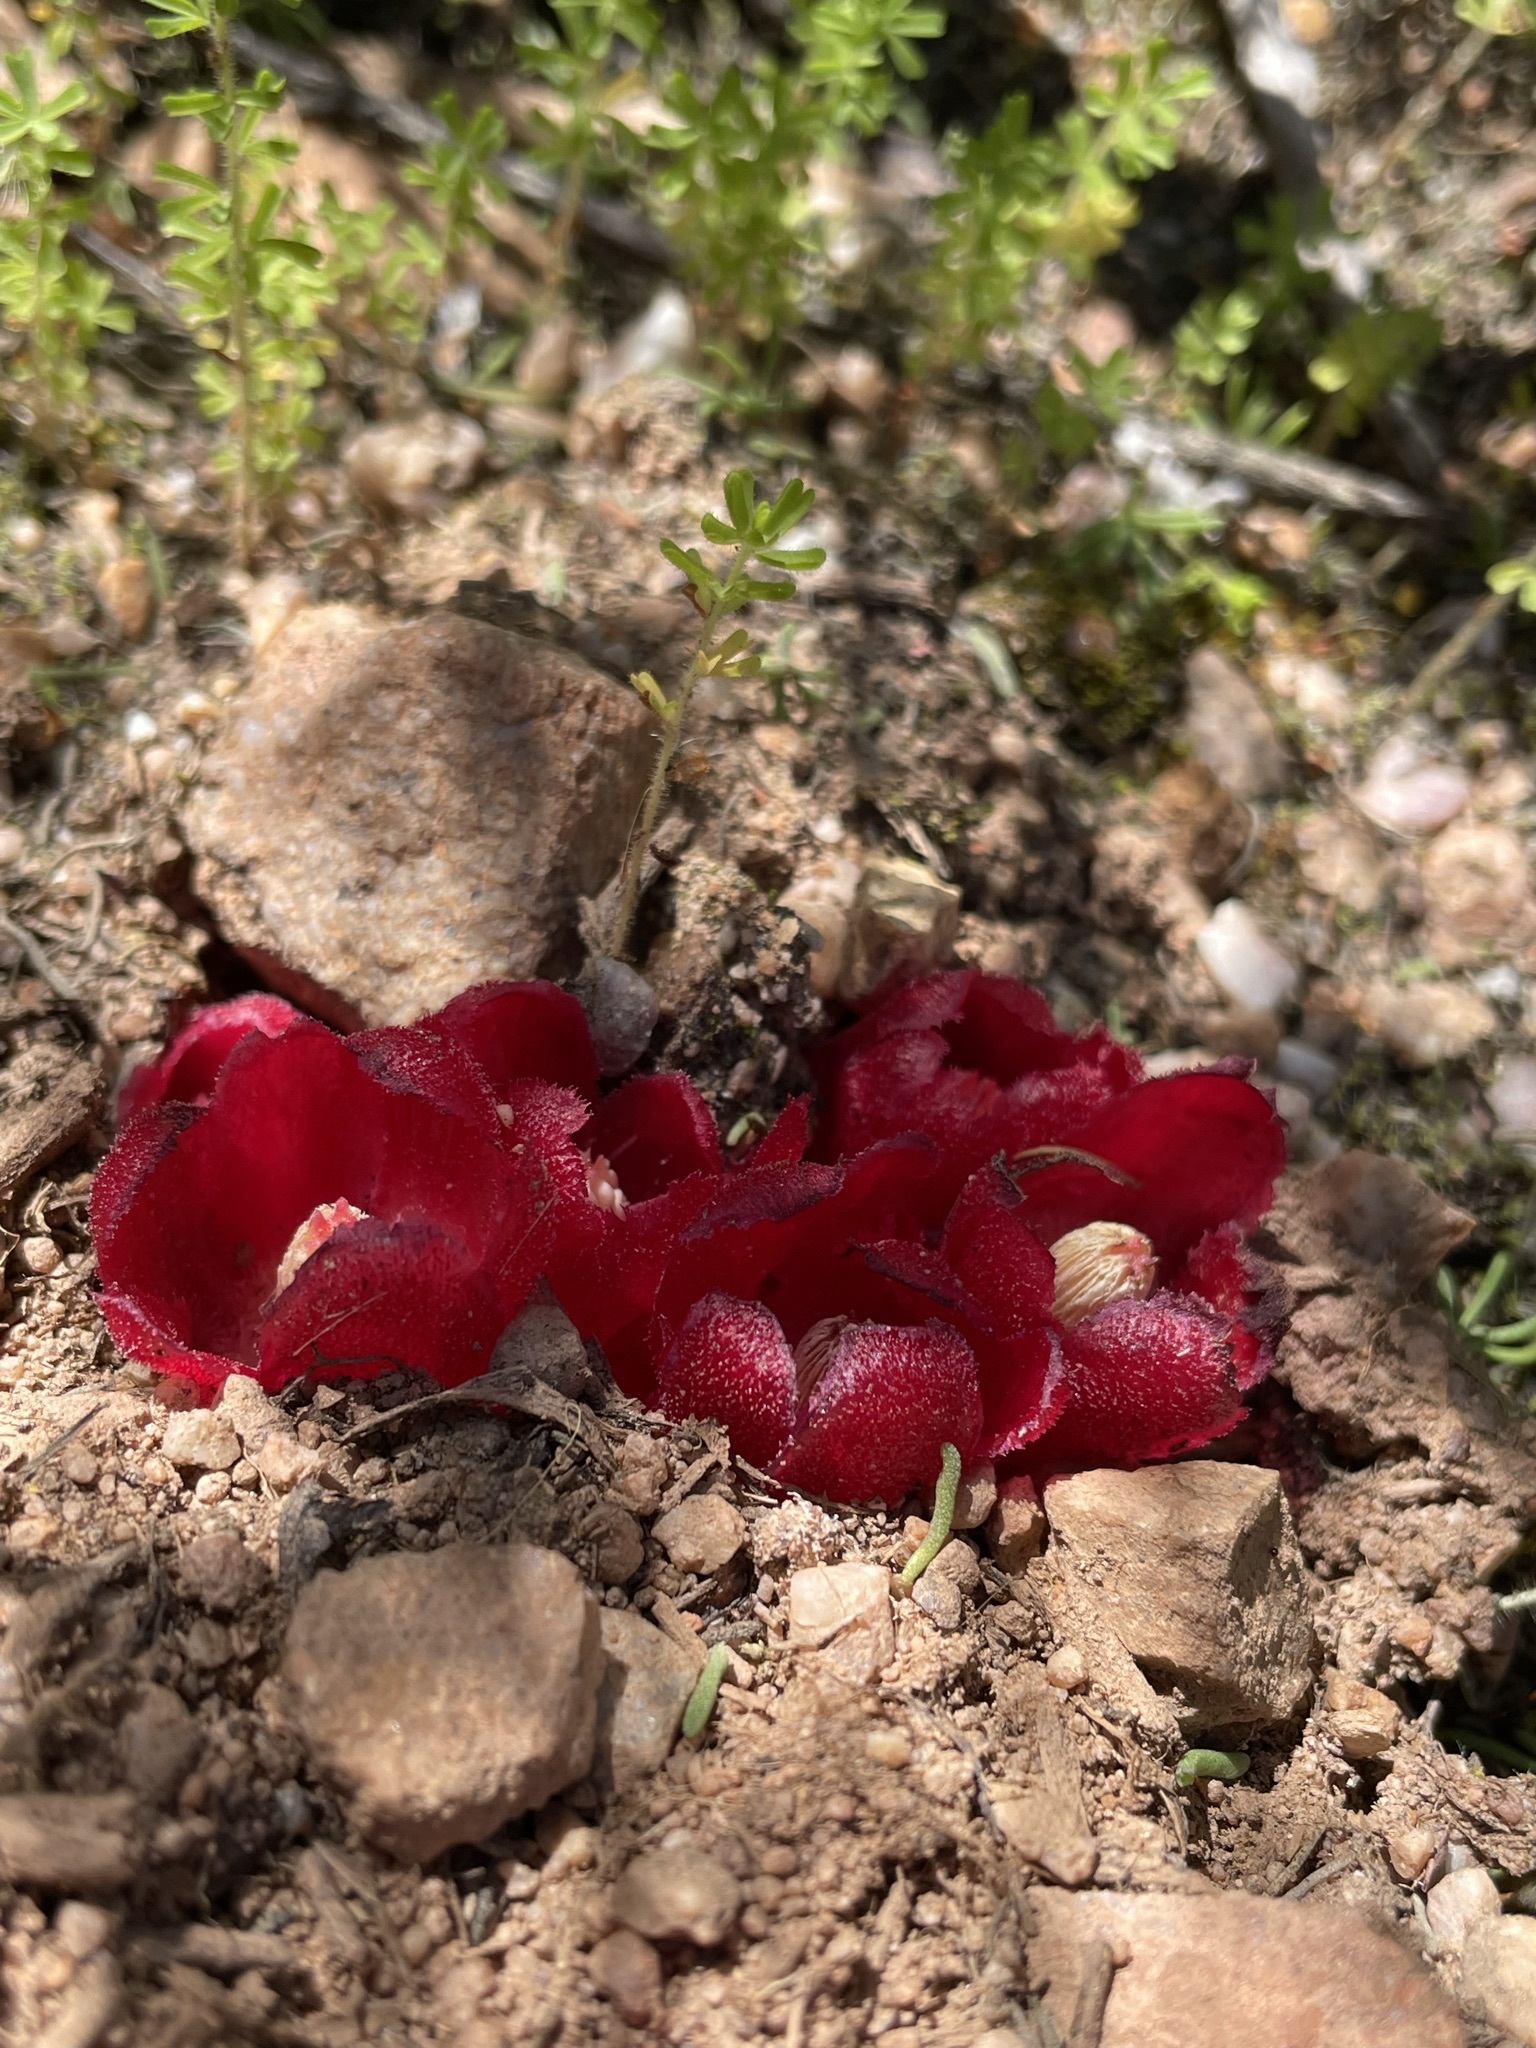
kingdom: Plantae
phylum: Tracheophyta
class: Magnoliopsida
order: Malvales
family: Cytinaceae
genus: Cytinus
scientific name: Cytinus sanguineus
